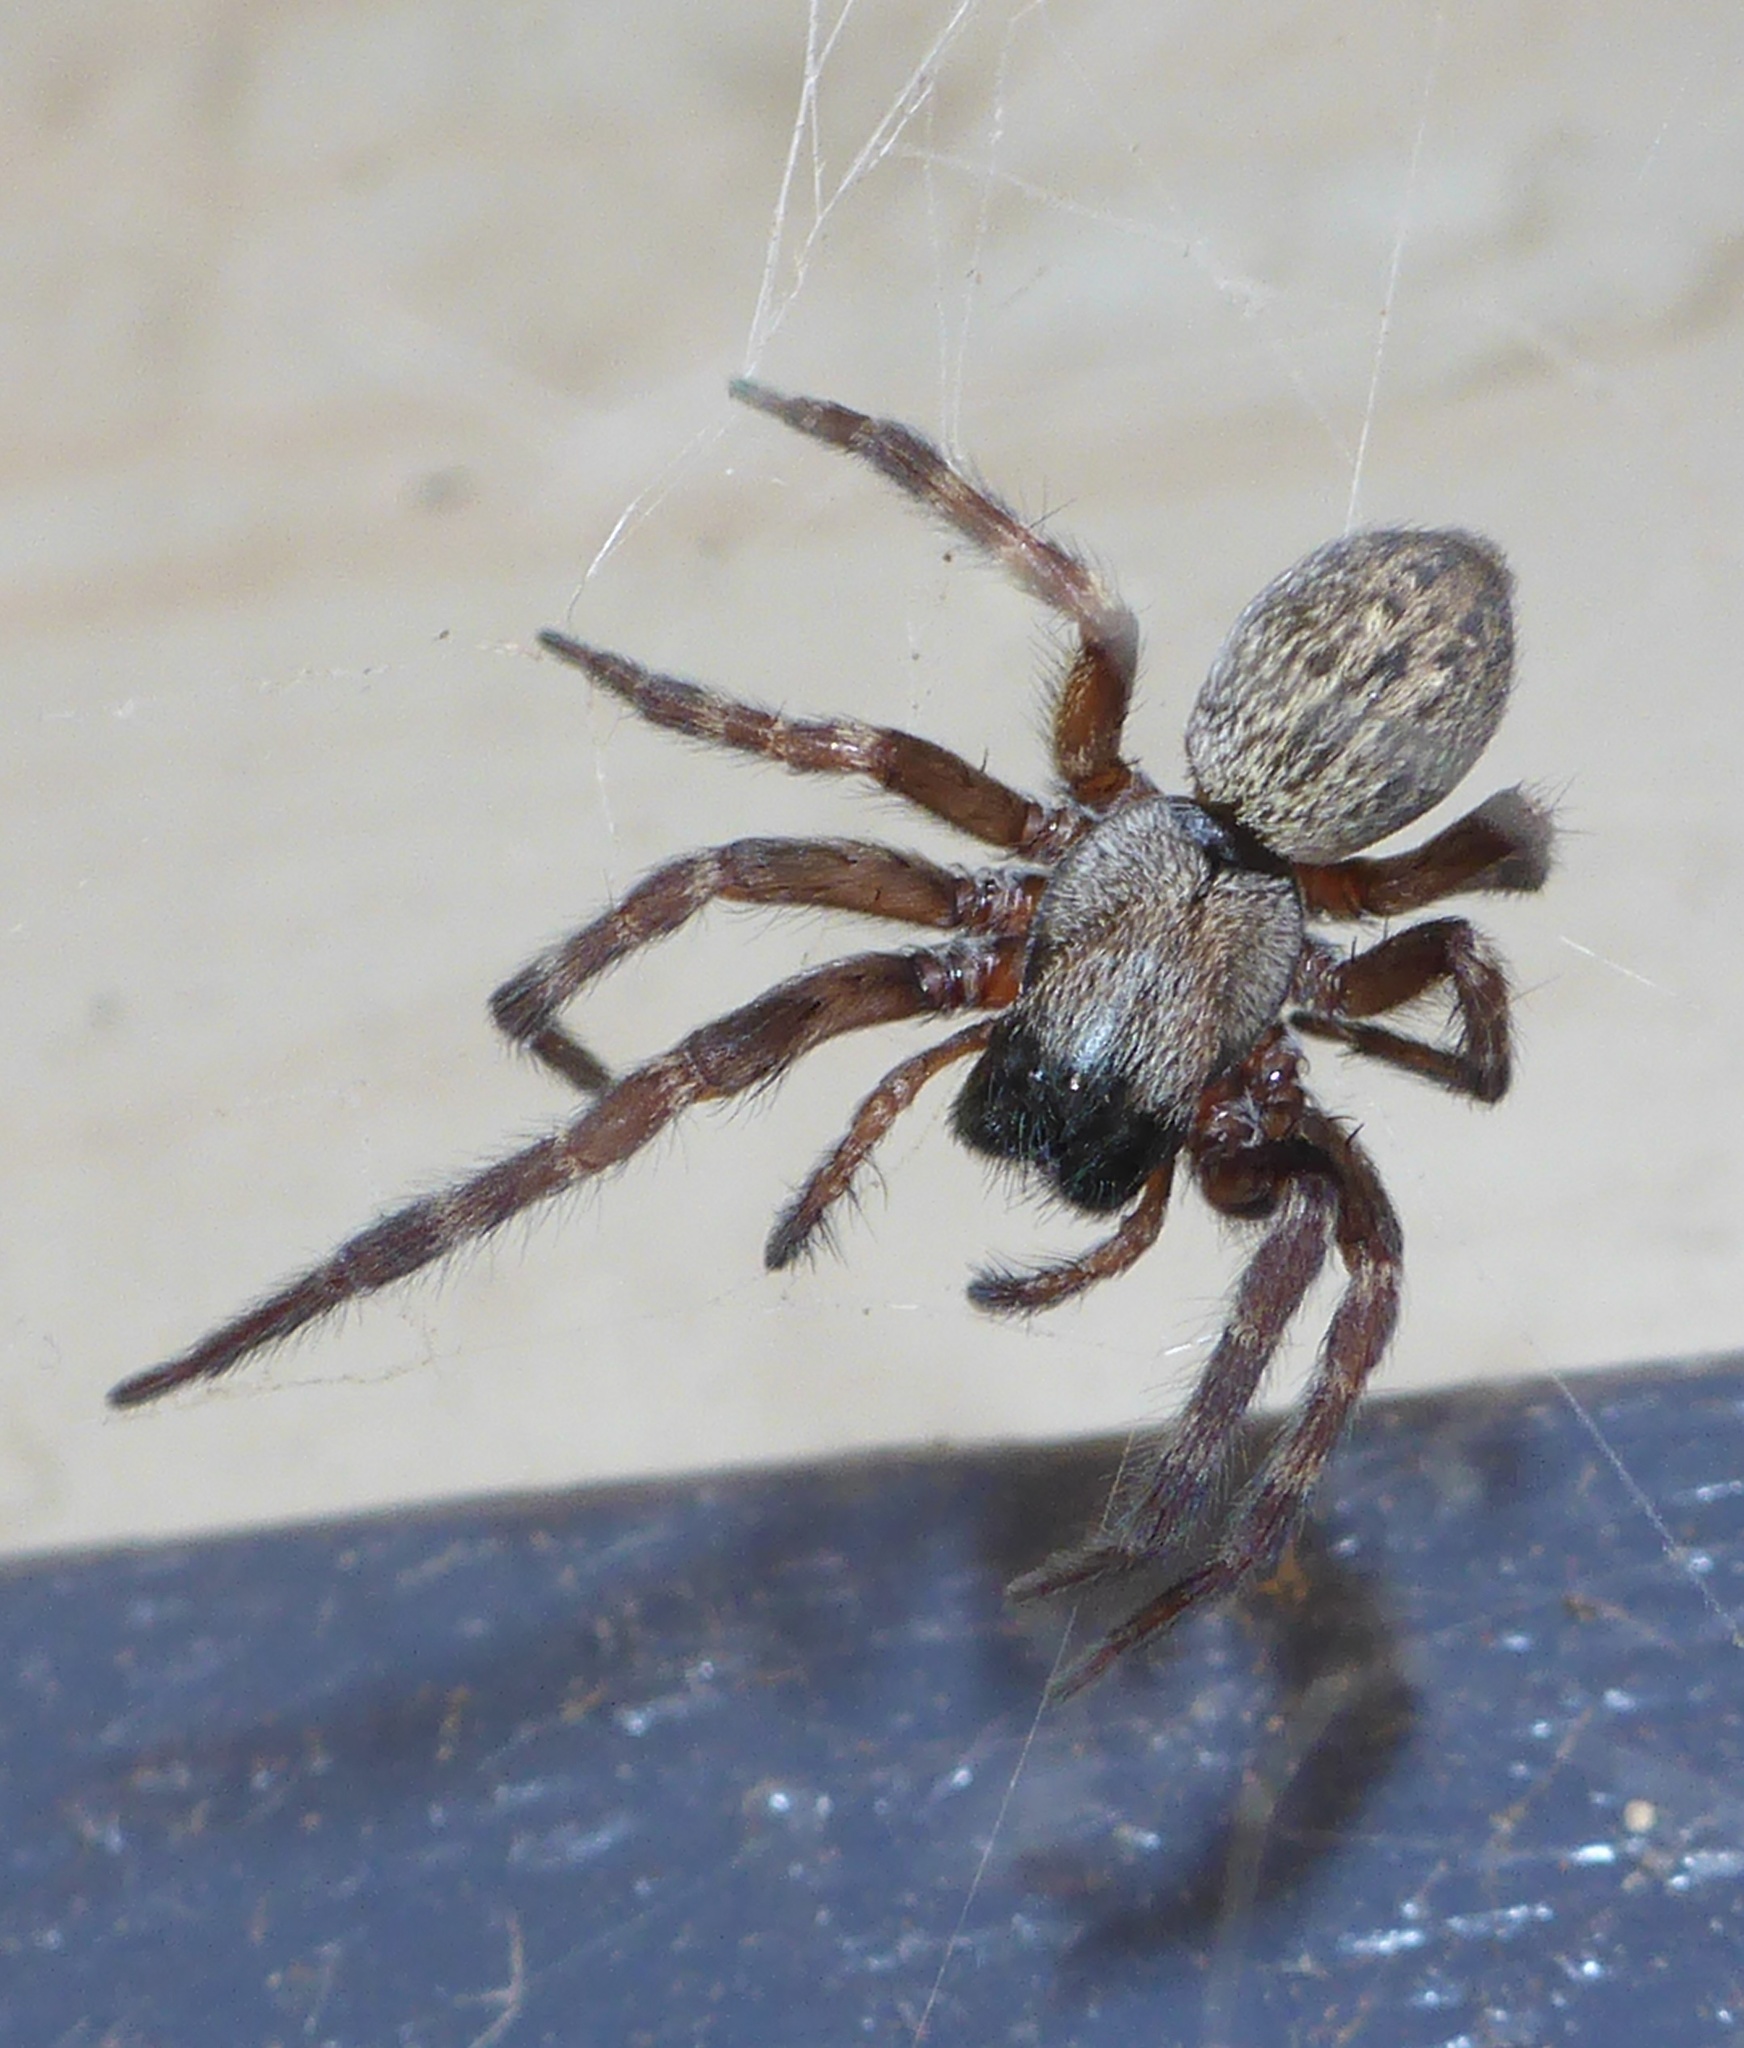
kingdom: Animalia
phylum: Arthropoda
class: Arachnida
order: Araneae
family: Desidae
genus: Badumna
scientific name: Badumna longinqua
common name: Gray house spider
